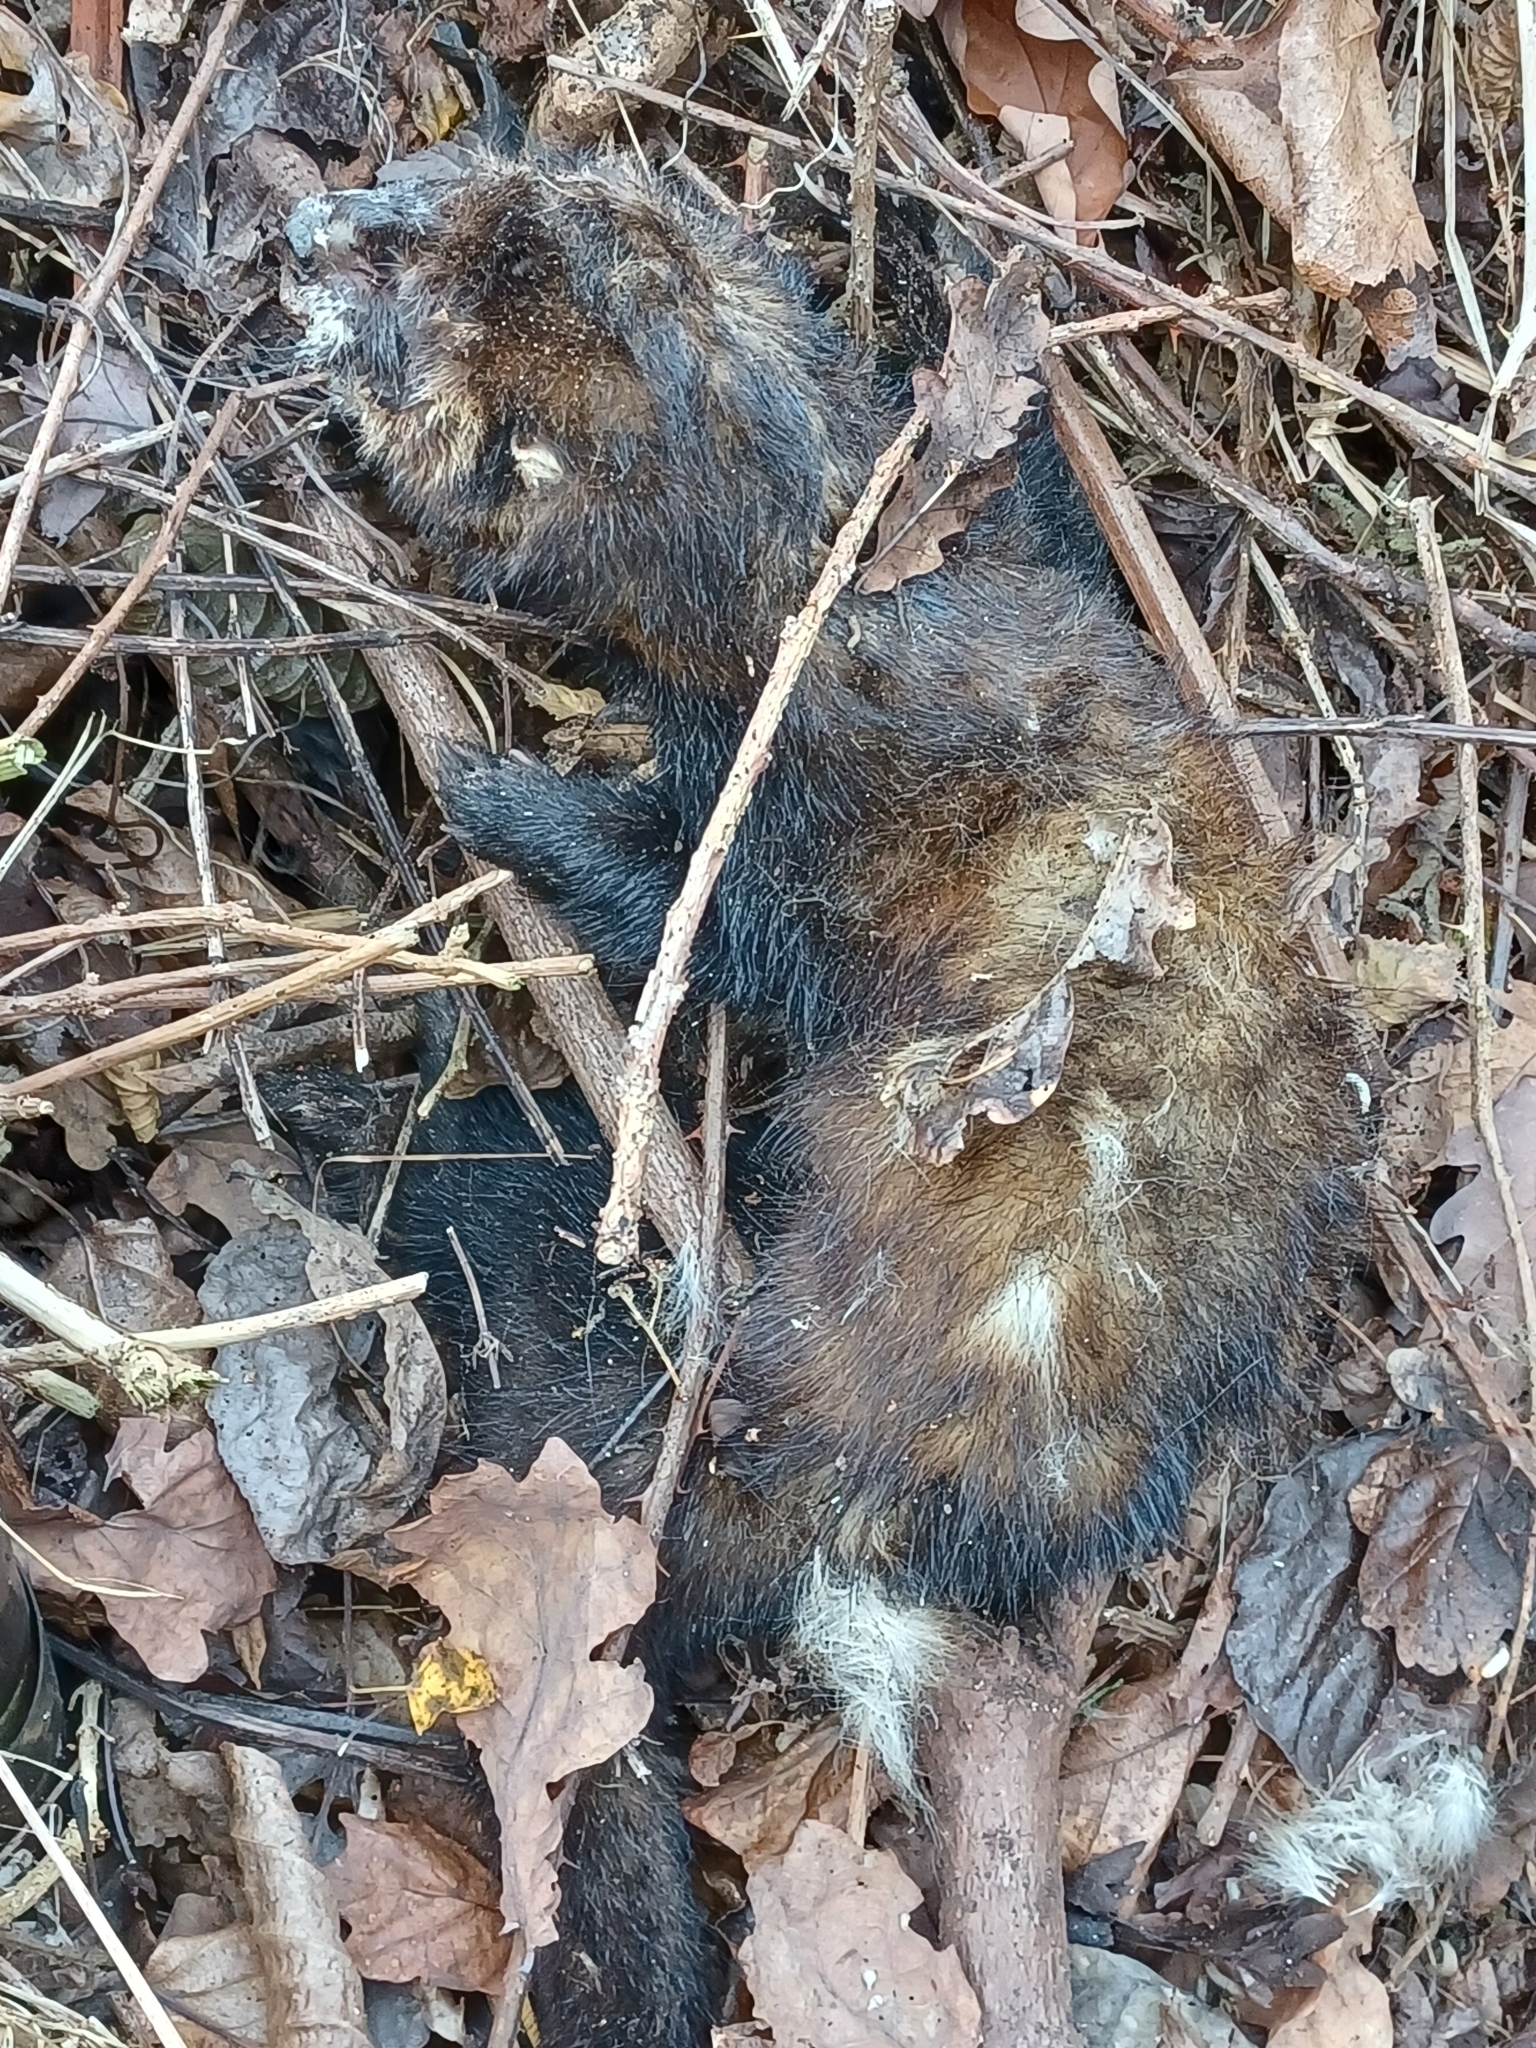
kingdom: Animalia
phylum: Chordata
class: Mammalia
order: Carnivora
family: Mustelidae
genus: Mustela
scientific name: Mustela putorius
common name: European polecat
